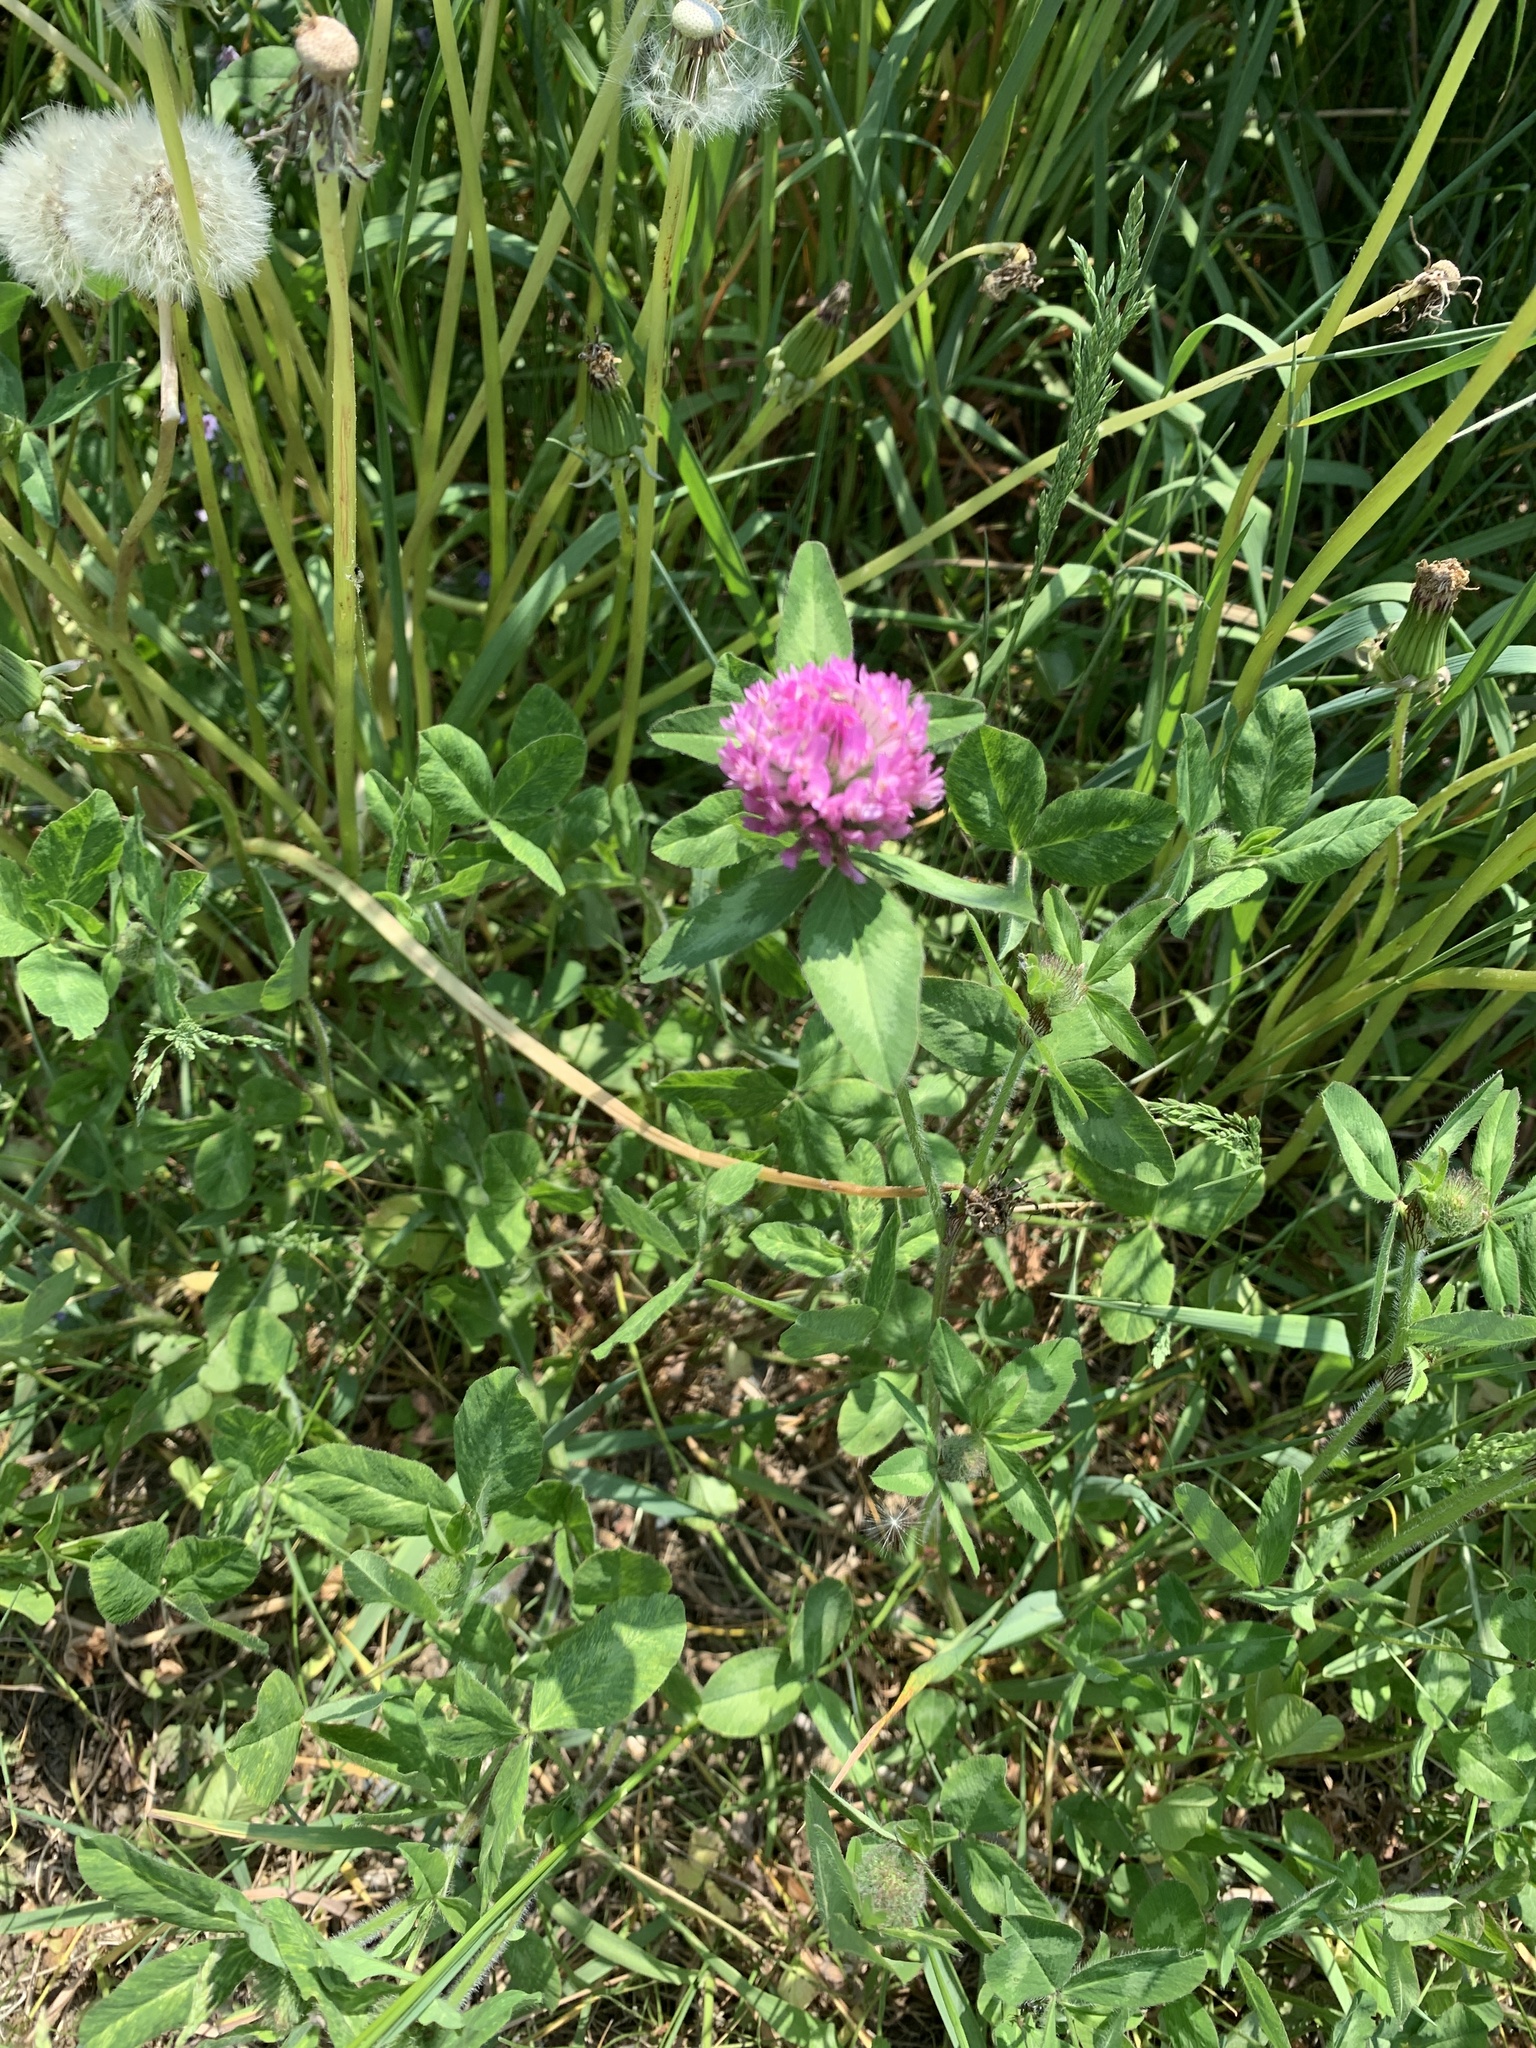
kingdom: Plantae
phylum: Tracheophyta
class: Magnoliopsida
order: Fabales
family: Fabaceae
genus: Trifolium
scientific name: Trifolium pratense
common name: Red clover
